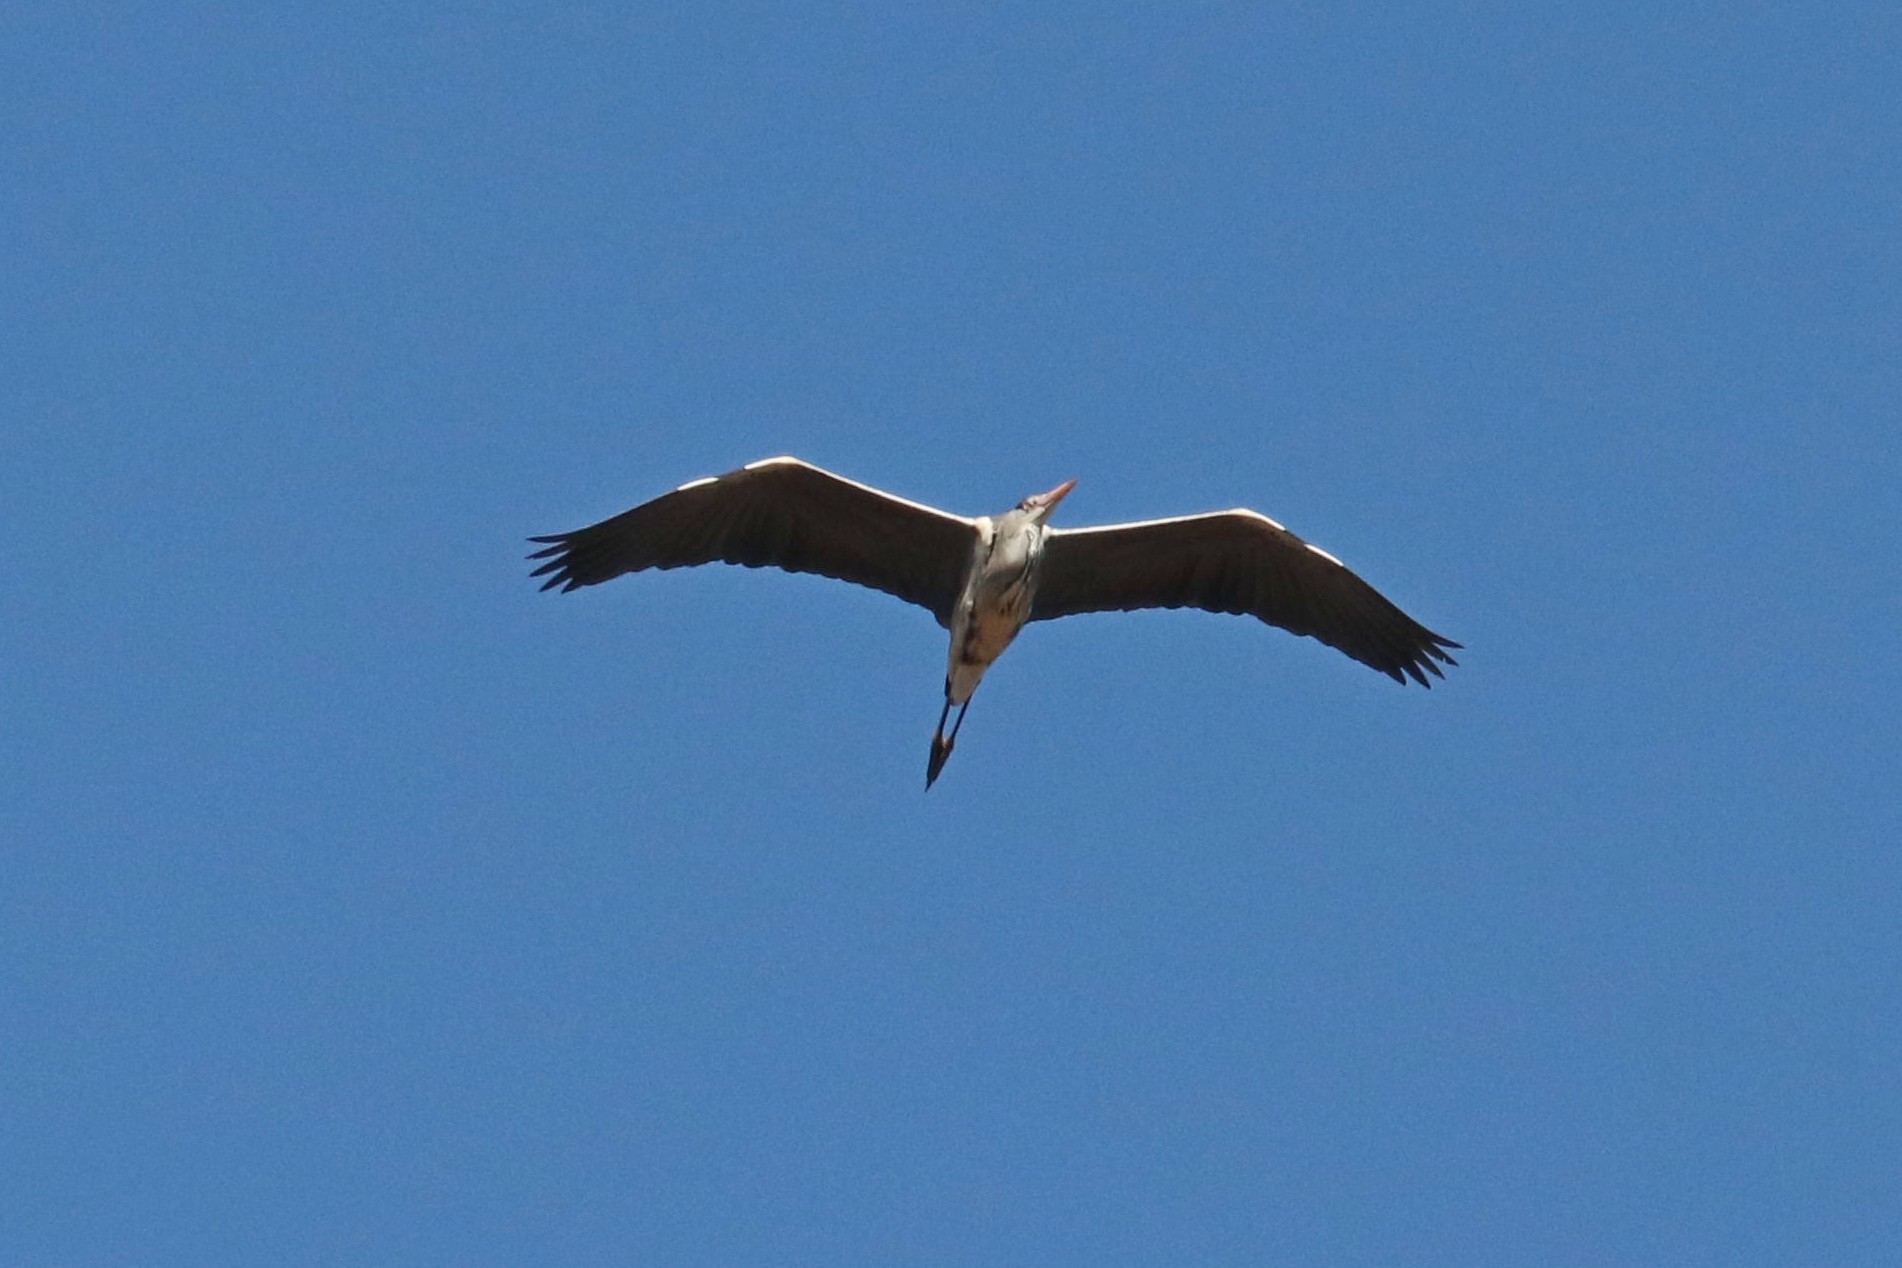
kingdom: Animalia
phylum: Chordata
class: Aves
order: Pelecaniformes
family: Ardeidae
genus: Ardea
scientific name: Ardea cinerea
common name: Grey heron
